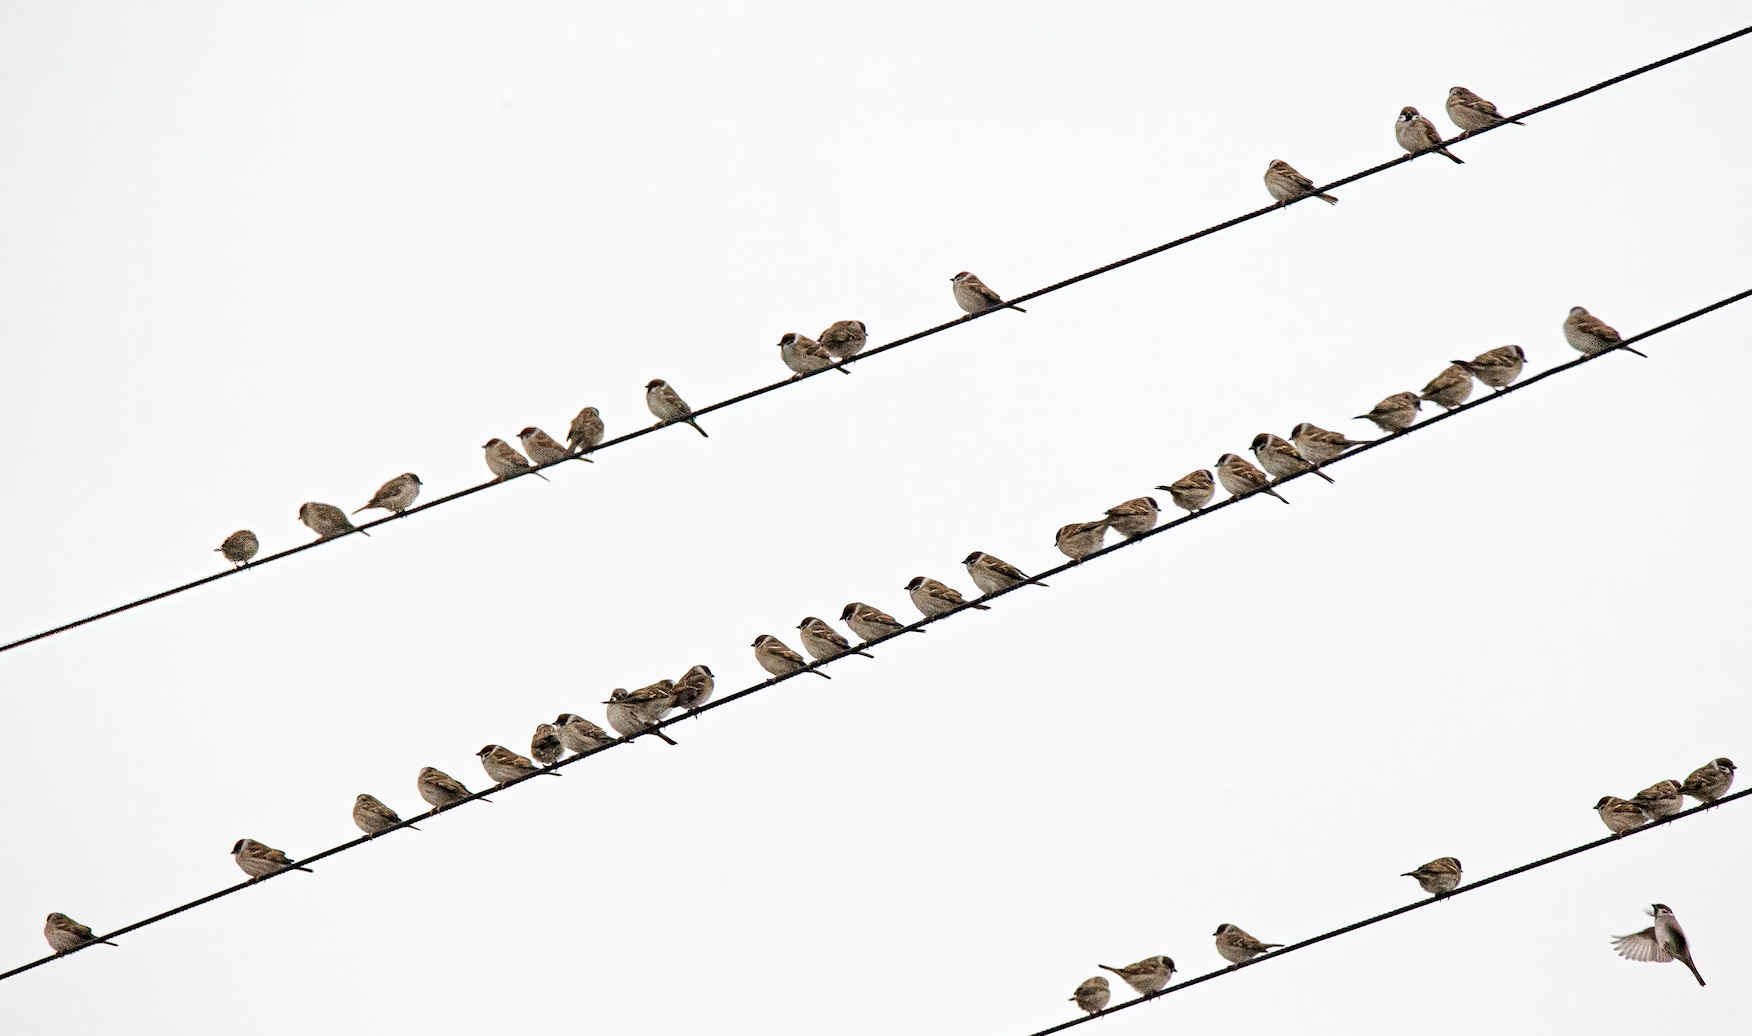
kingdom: Animalia
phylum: Chordata
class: Aves
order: Passeriformes
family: Passeridae
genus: Passer
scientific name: Passer montanus
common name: Eurasian tree sparrow
